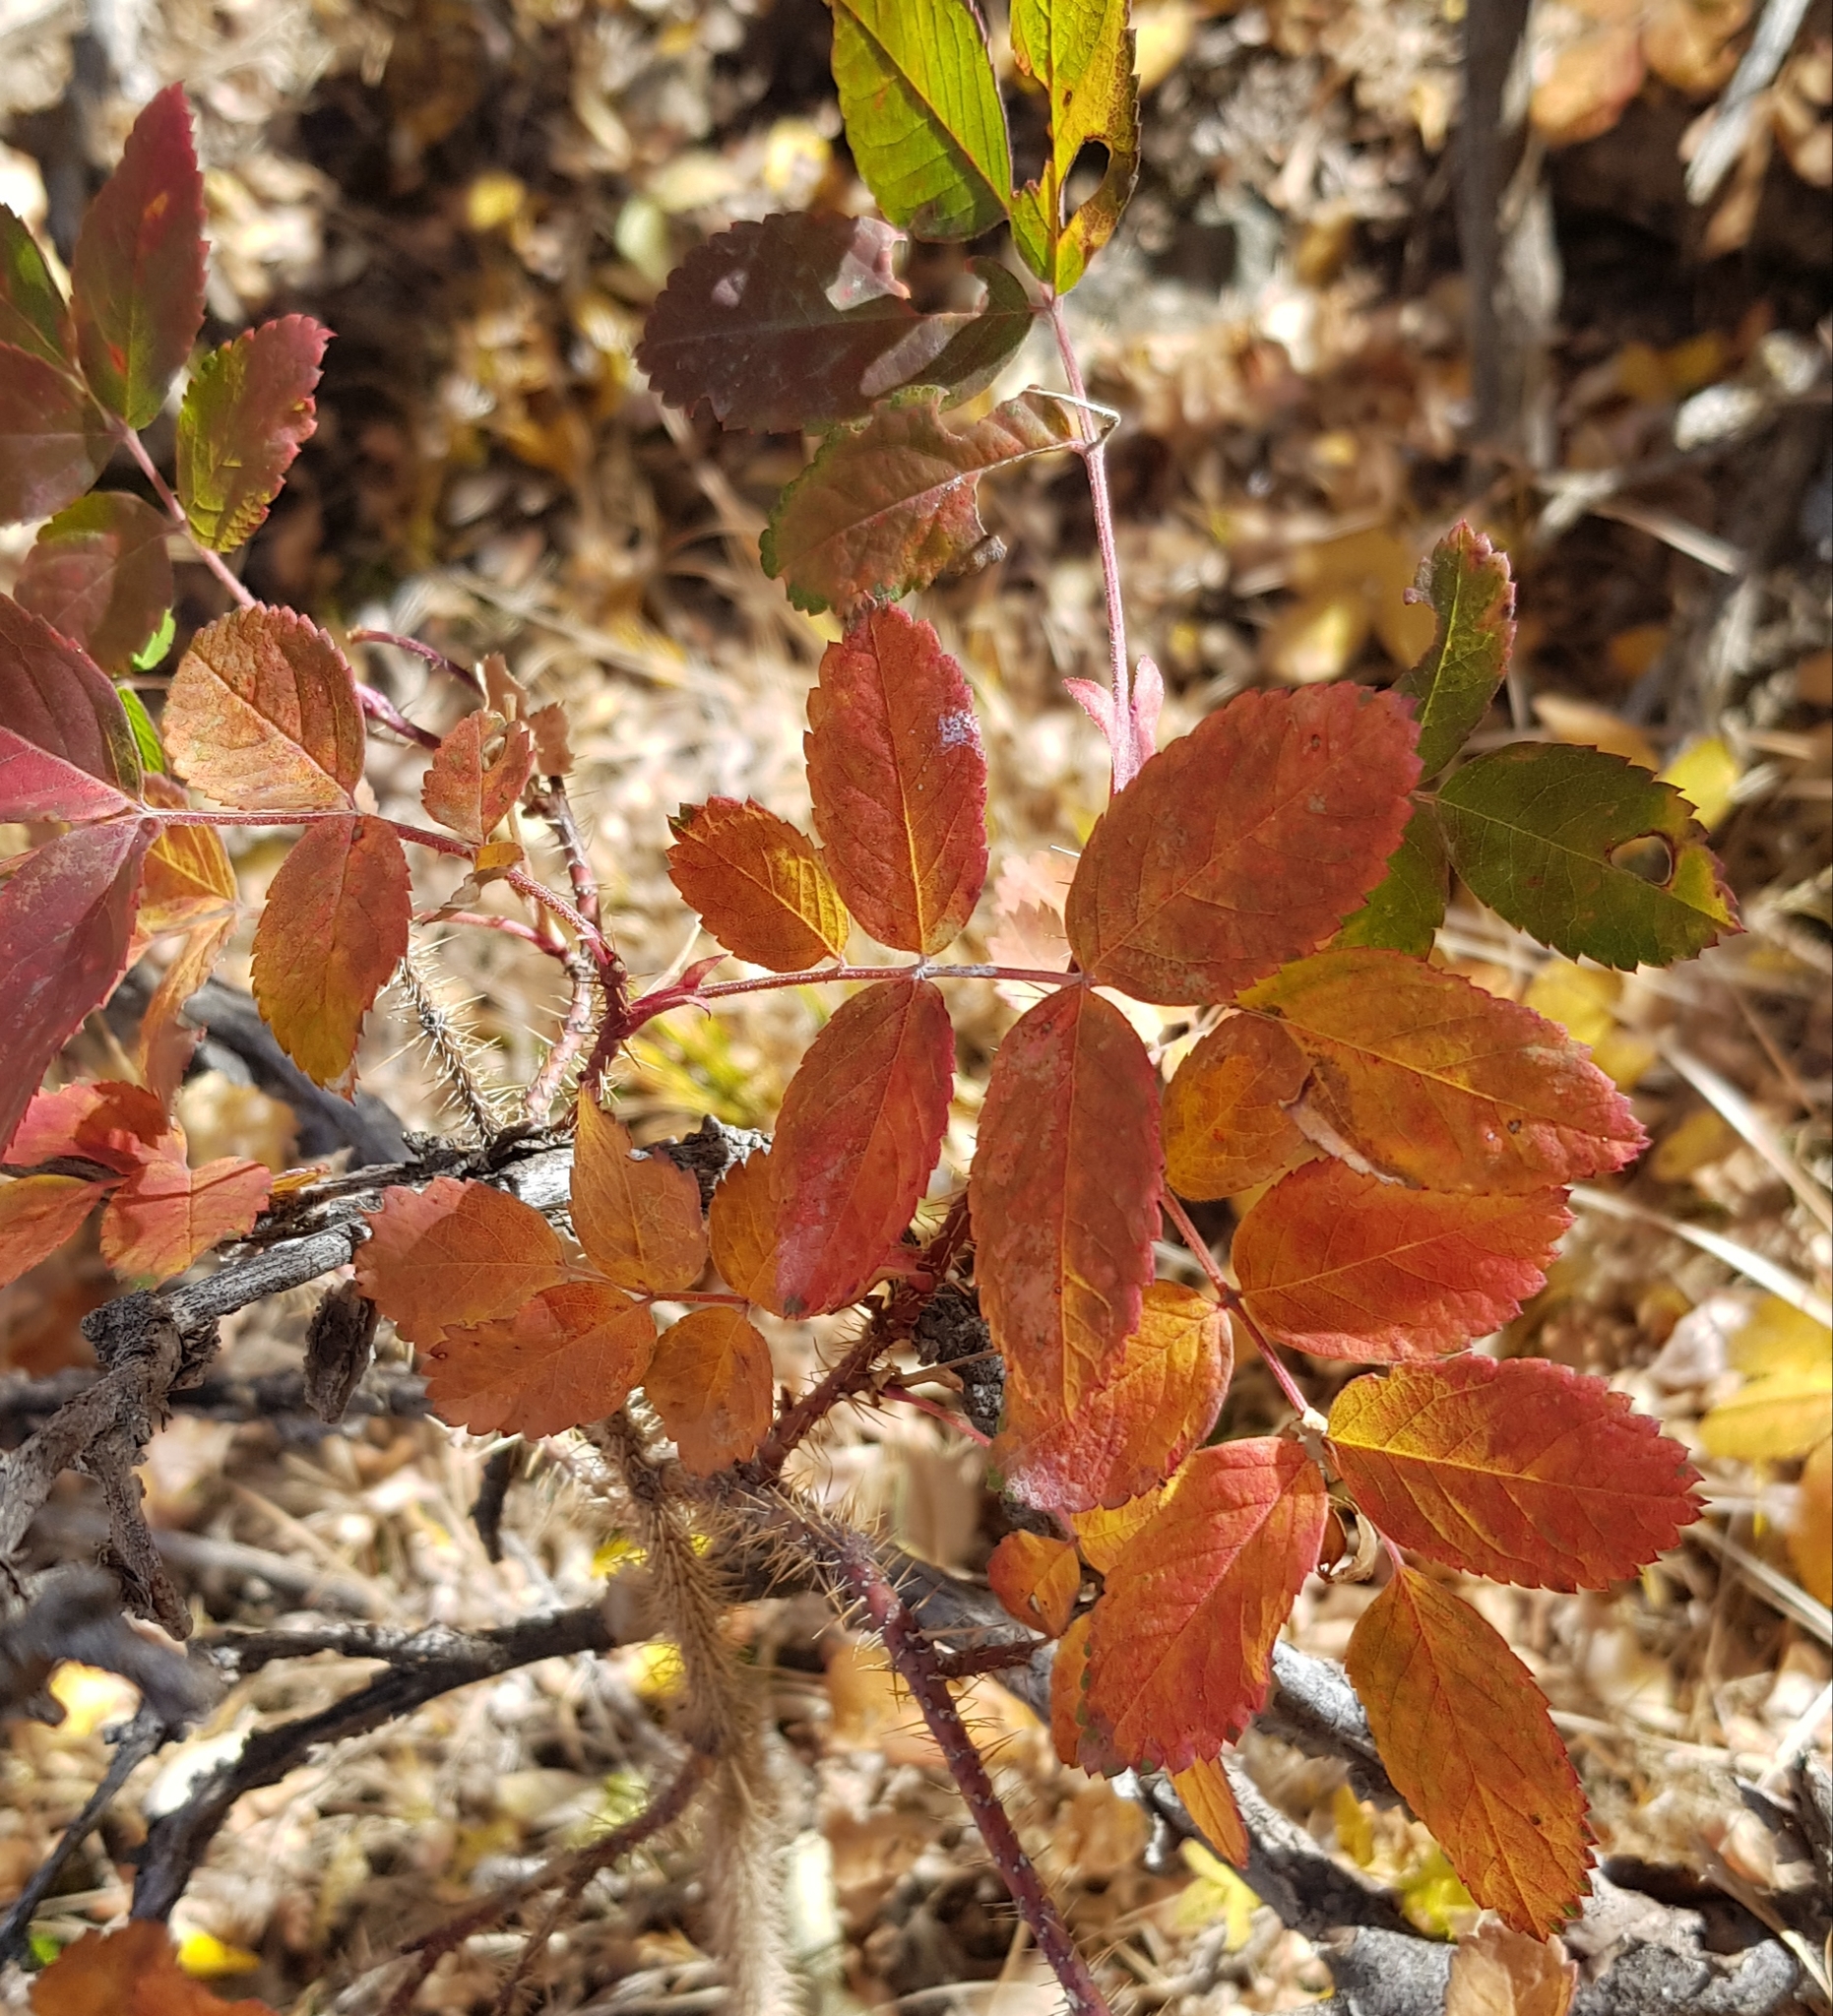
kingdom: Plantae
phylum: Tracheophyta
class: Magnoliopsida
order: Rosales
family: Rosaceae
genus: Rosa
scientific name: Rosa acicularis
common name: Prickly rose
